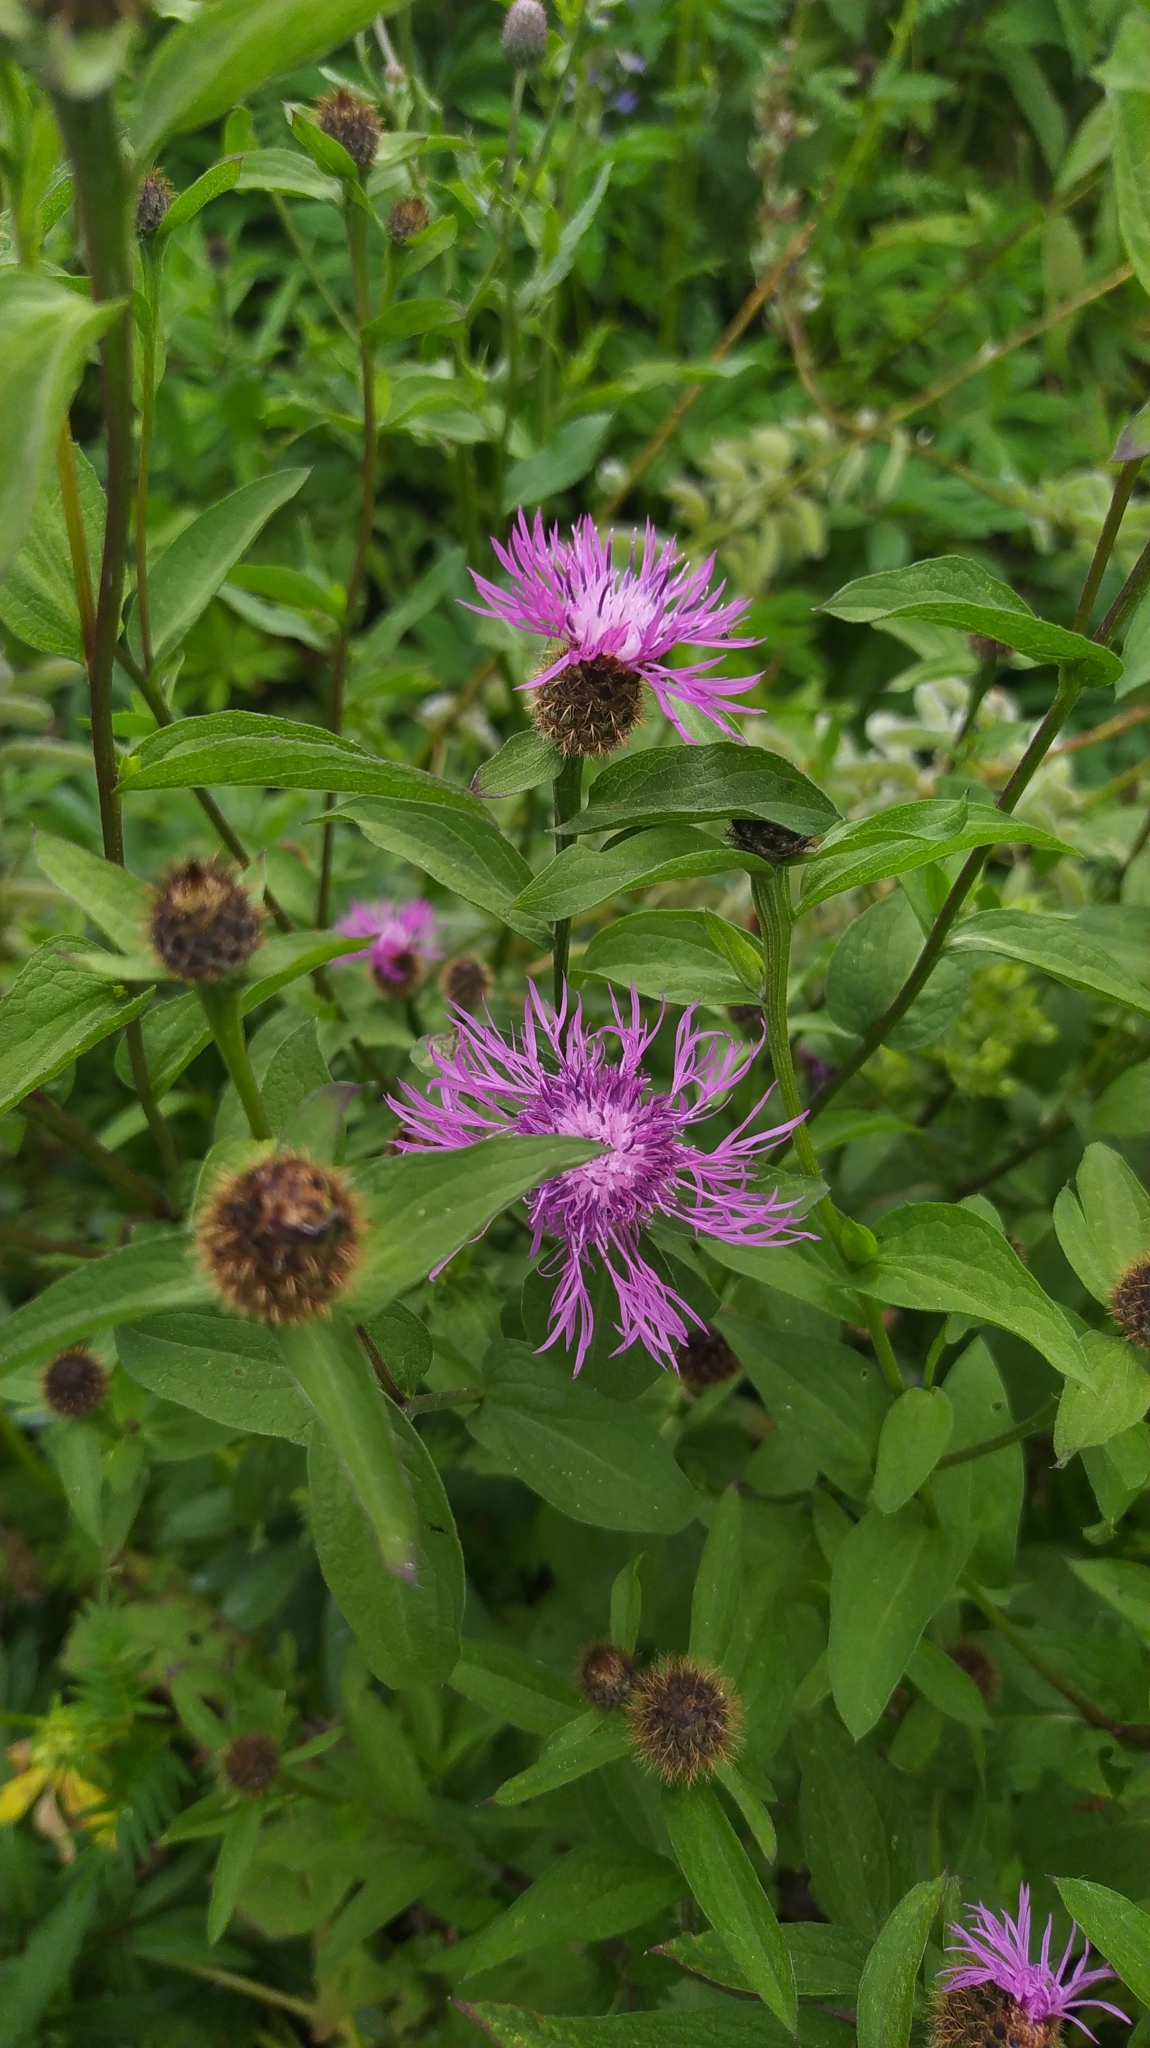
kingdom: Plantae
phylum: Tracheophyta
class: Magnoliopsida
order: Asterales
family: Asteraceae
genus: Centaurea
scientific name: Centaurea phrygia
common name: Wig knapweed
